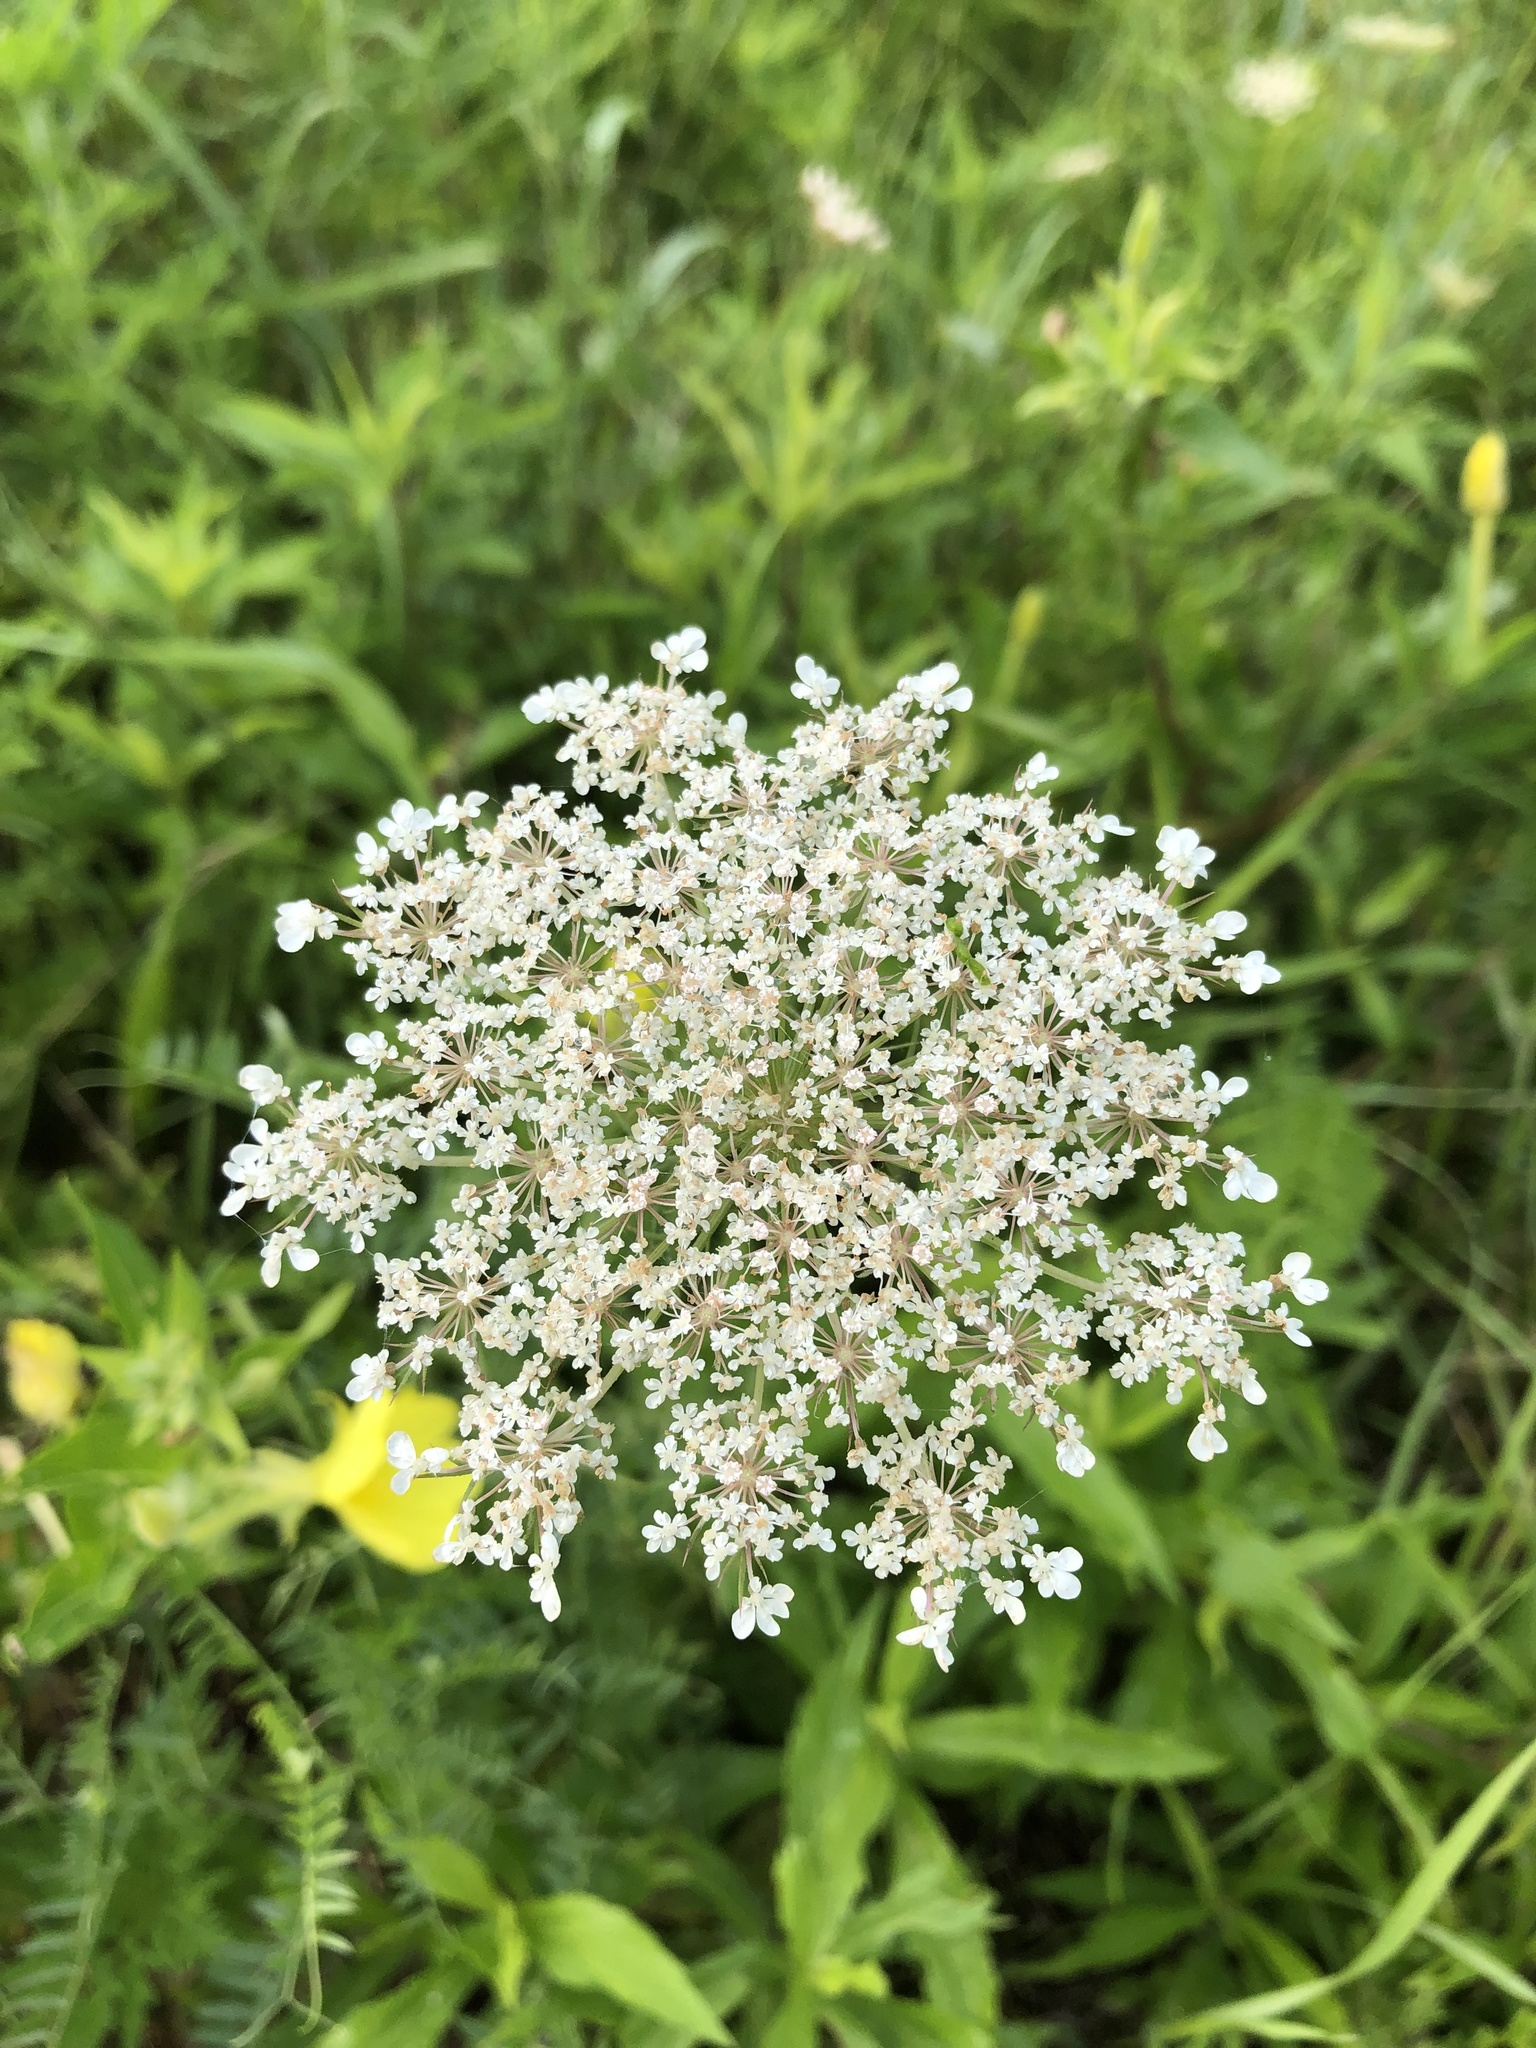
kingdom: Plantae
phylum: Tracheophyta
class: Magnoliopsida
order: Apiales
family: Apiaceae
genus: Daucus
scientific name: Daucus carota
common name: Wild carrot
